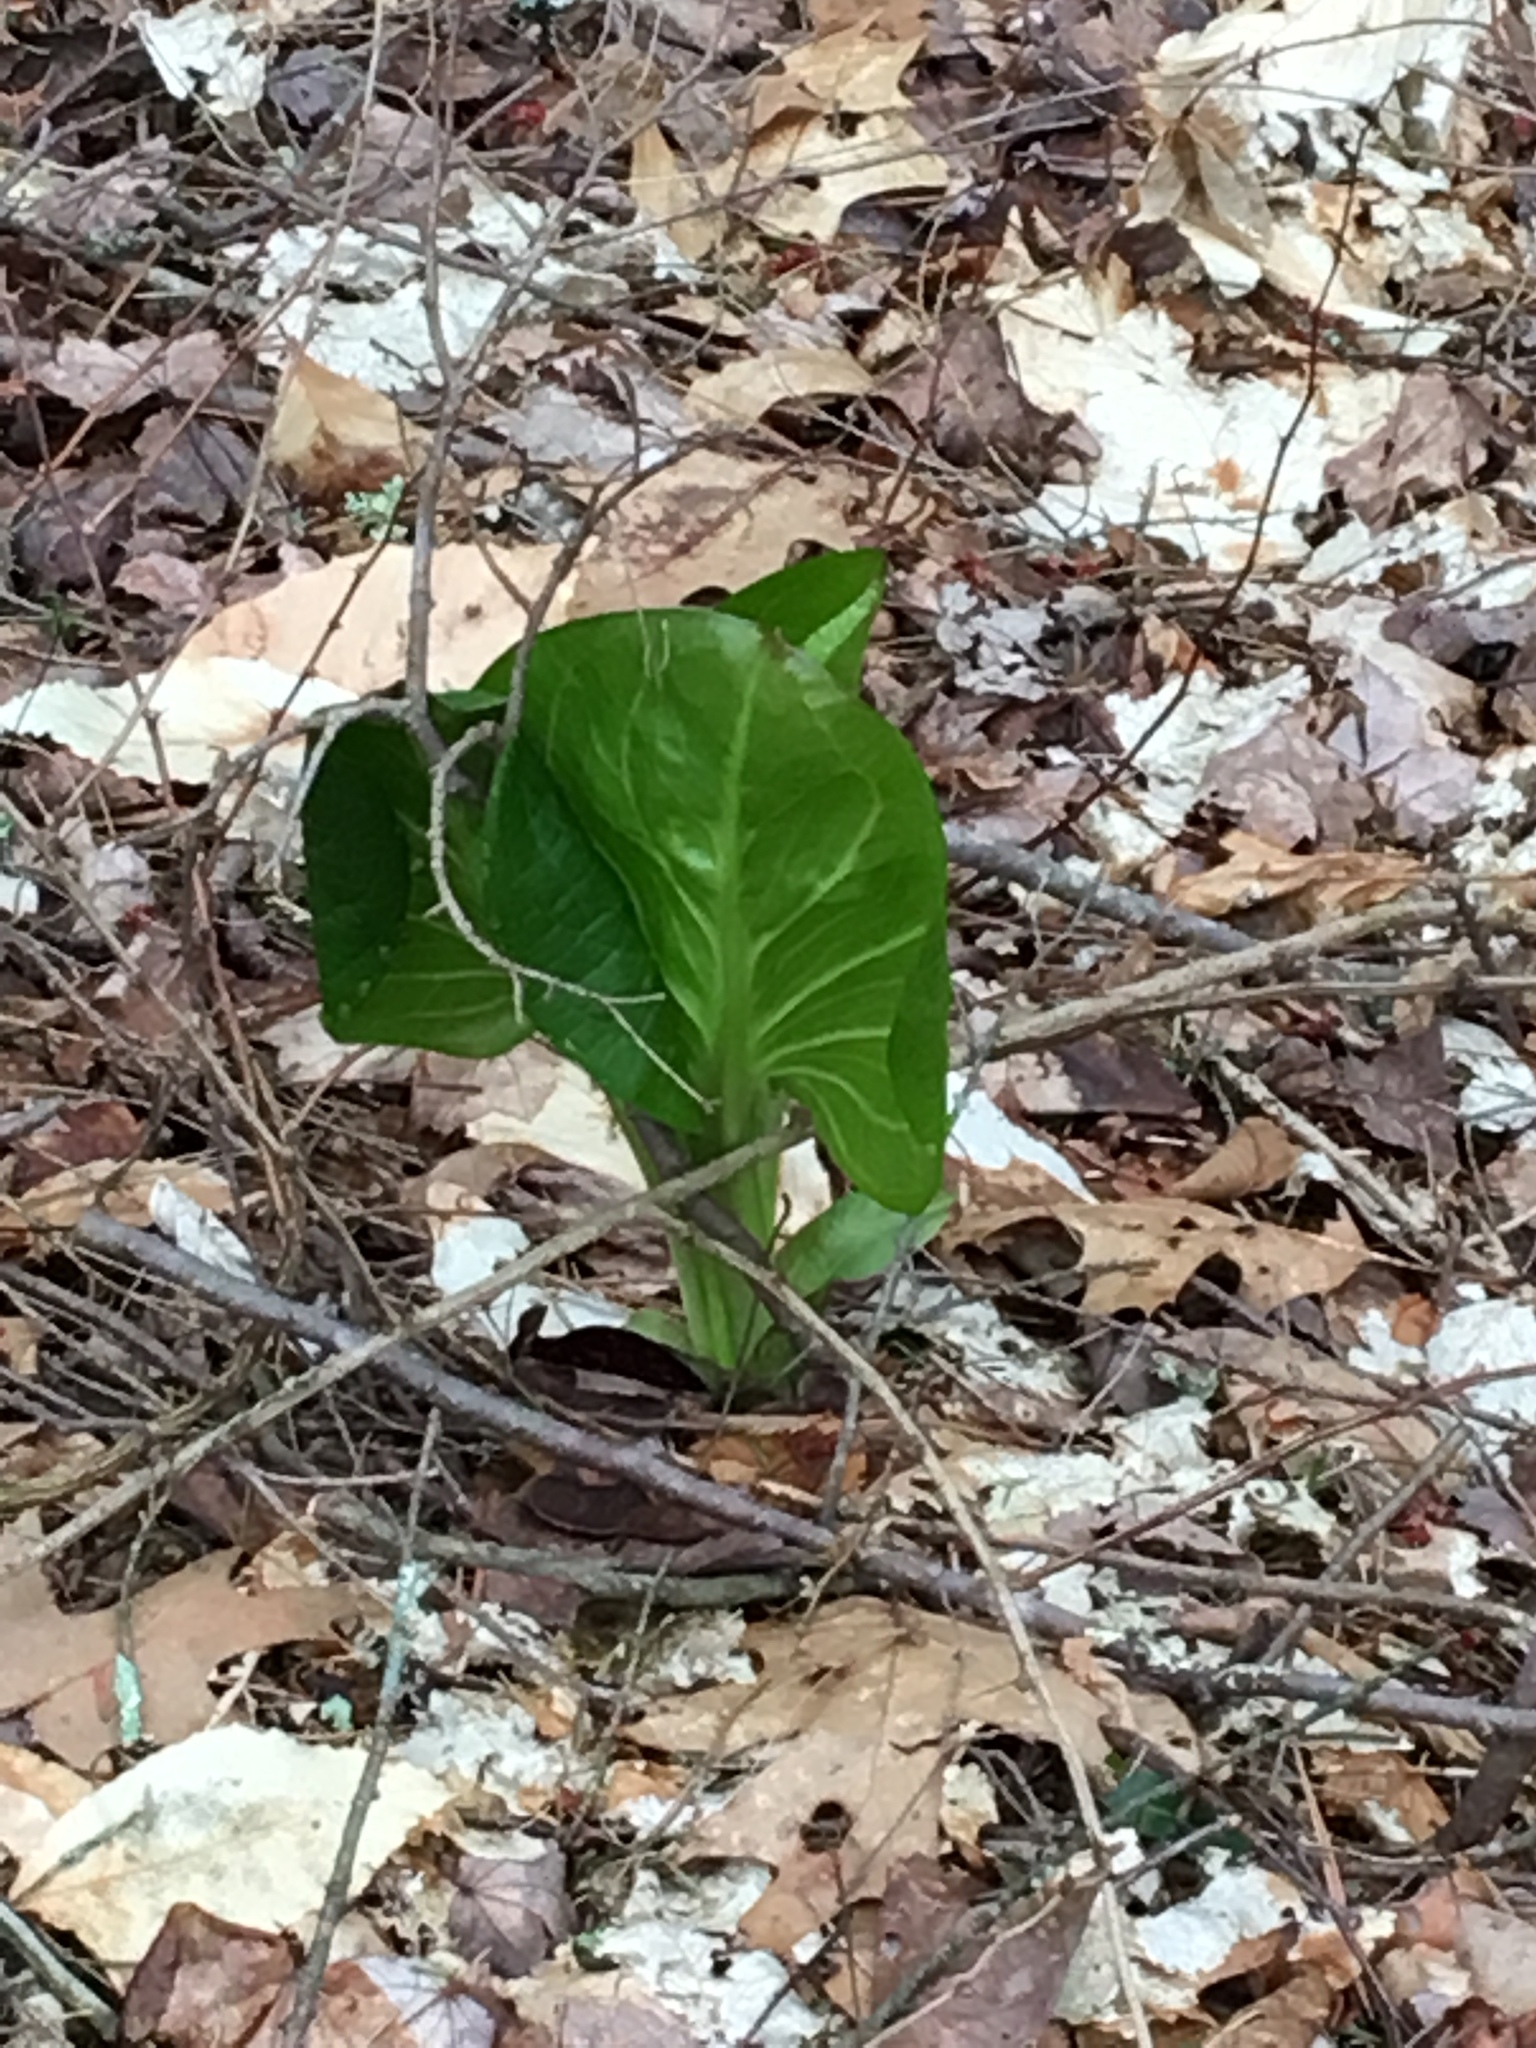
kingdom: Plantae
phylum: Tracheophyta
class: Liliopsida
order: Alismatales
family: Araceae
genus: Symplocarpus
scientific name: Symplocarpus foetidus
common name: Eastern skunk cabbage
